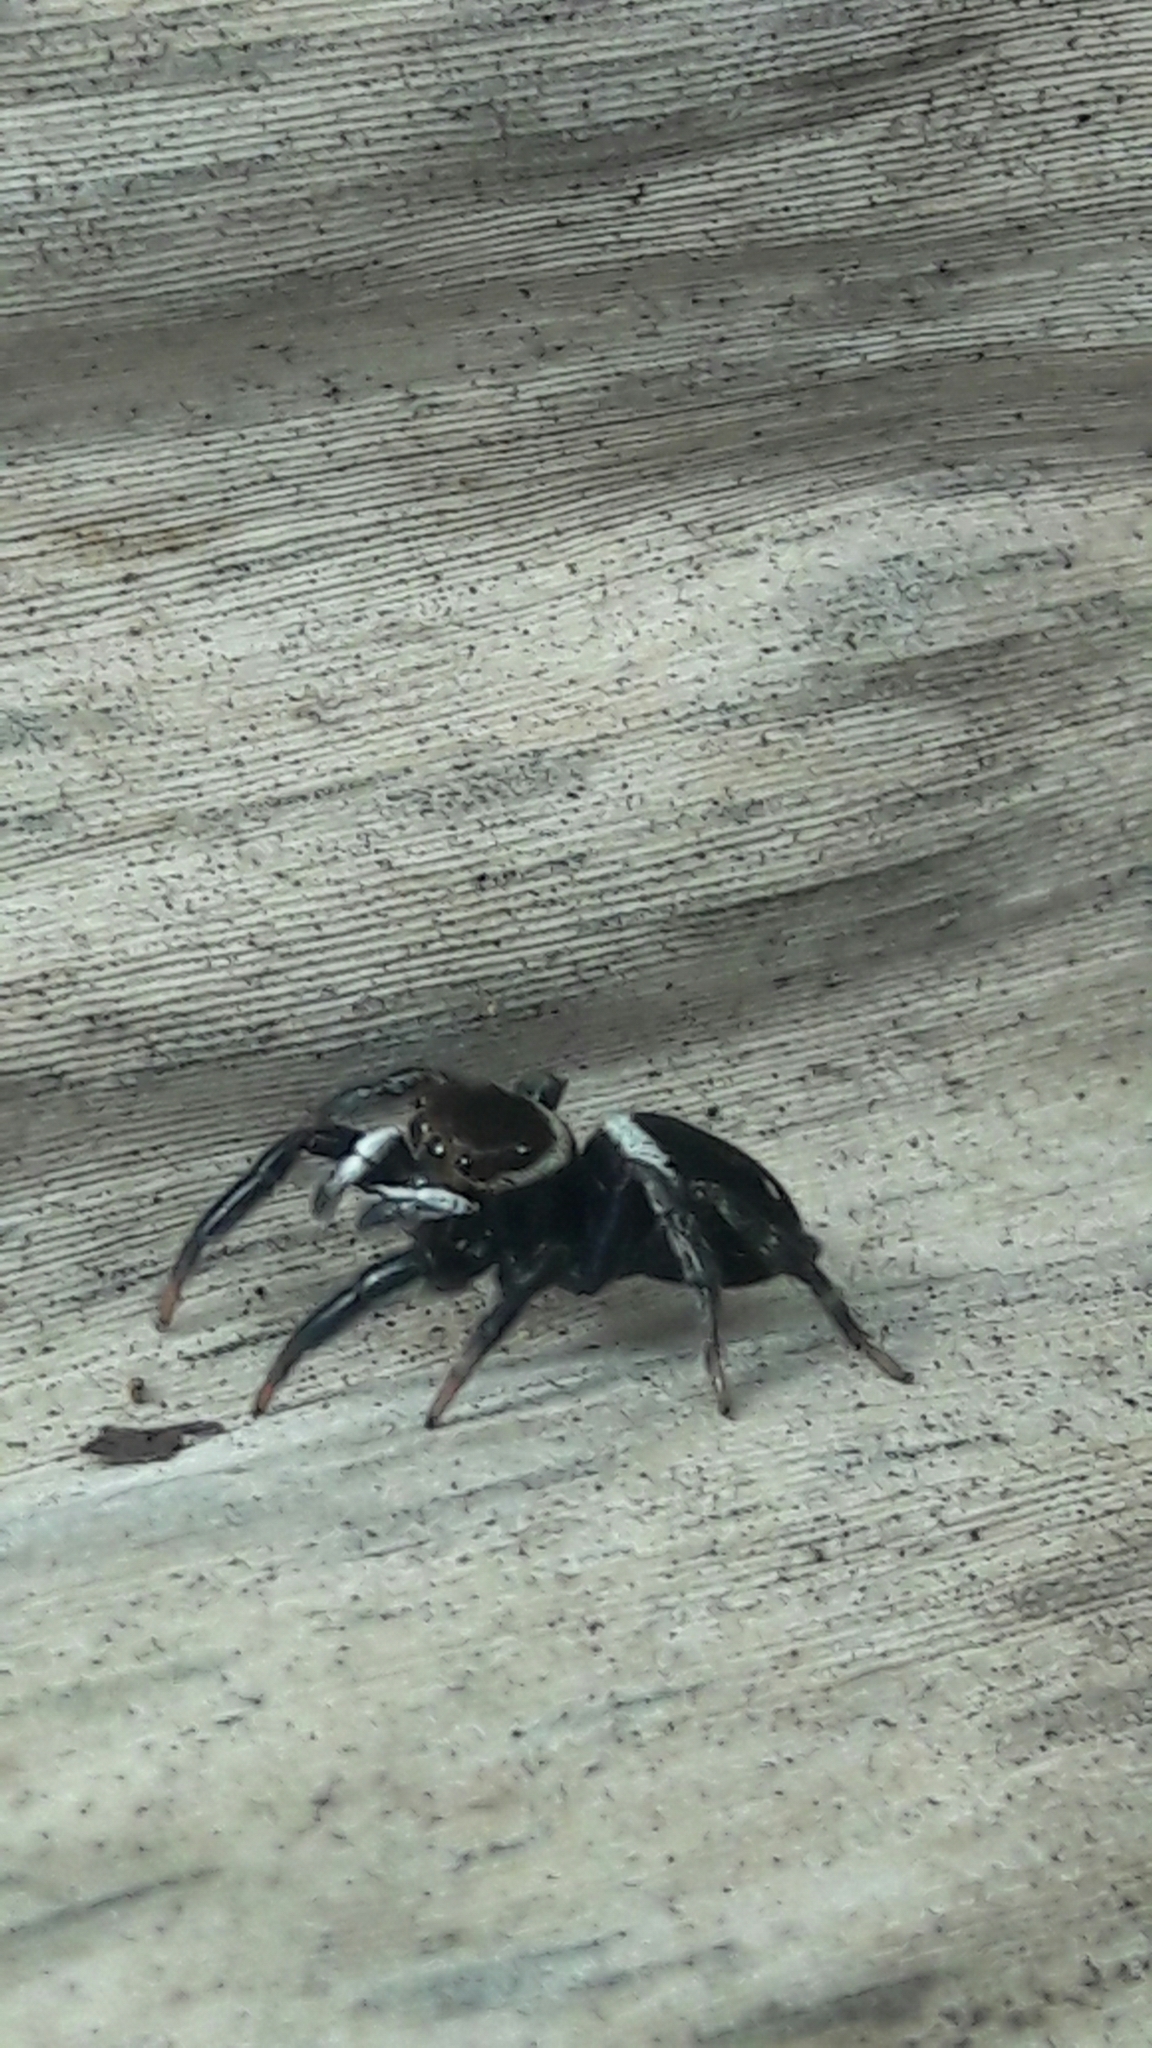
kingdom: Animalia
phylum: Arthropoda
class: Arachnida
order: Araneae
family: Salticidae
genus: Hasarius
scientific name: Hasarius adansoni
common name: Jumping spider
